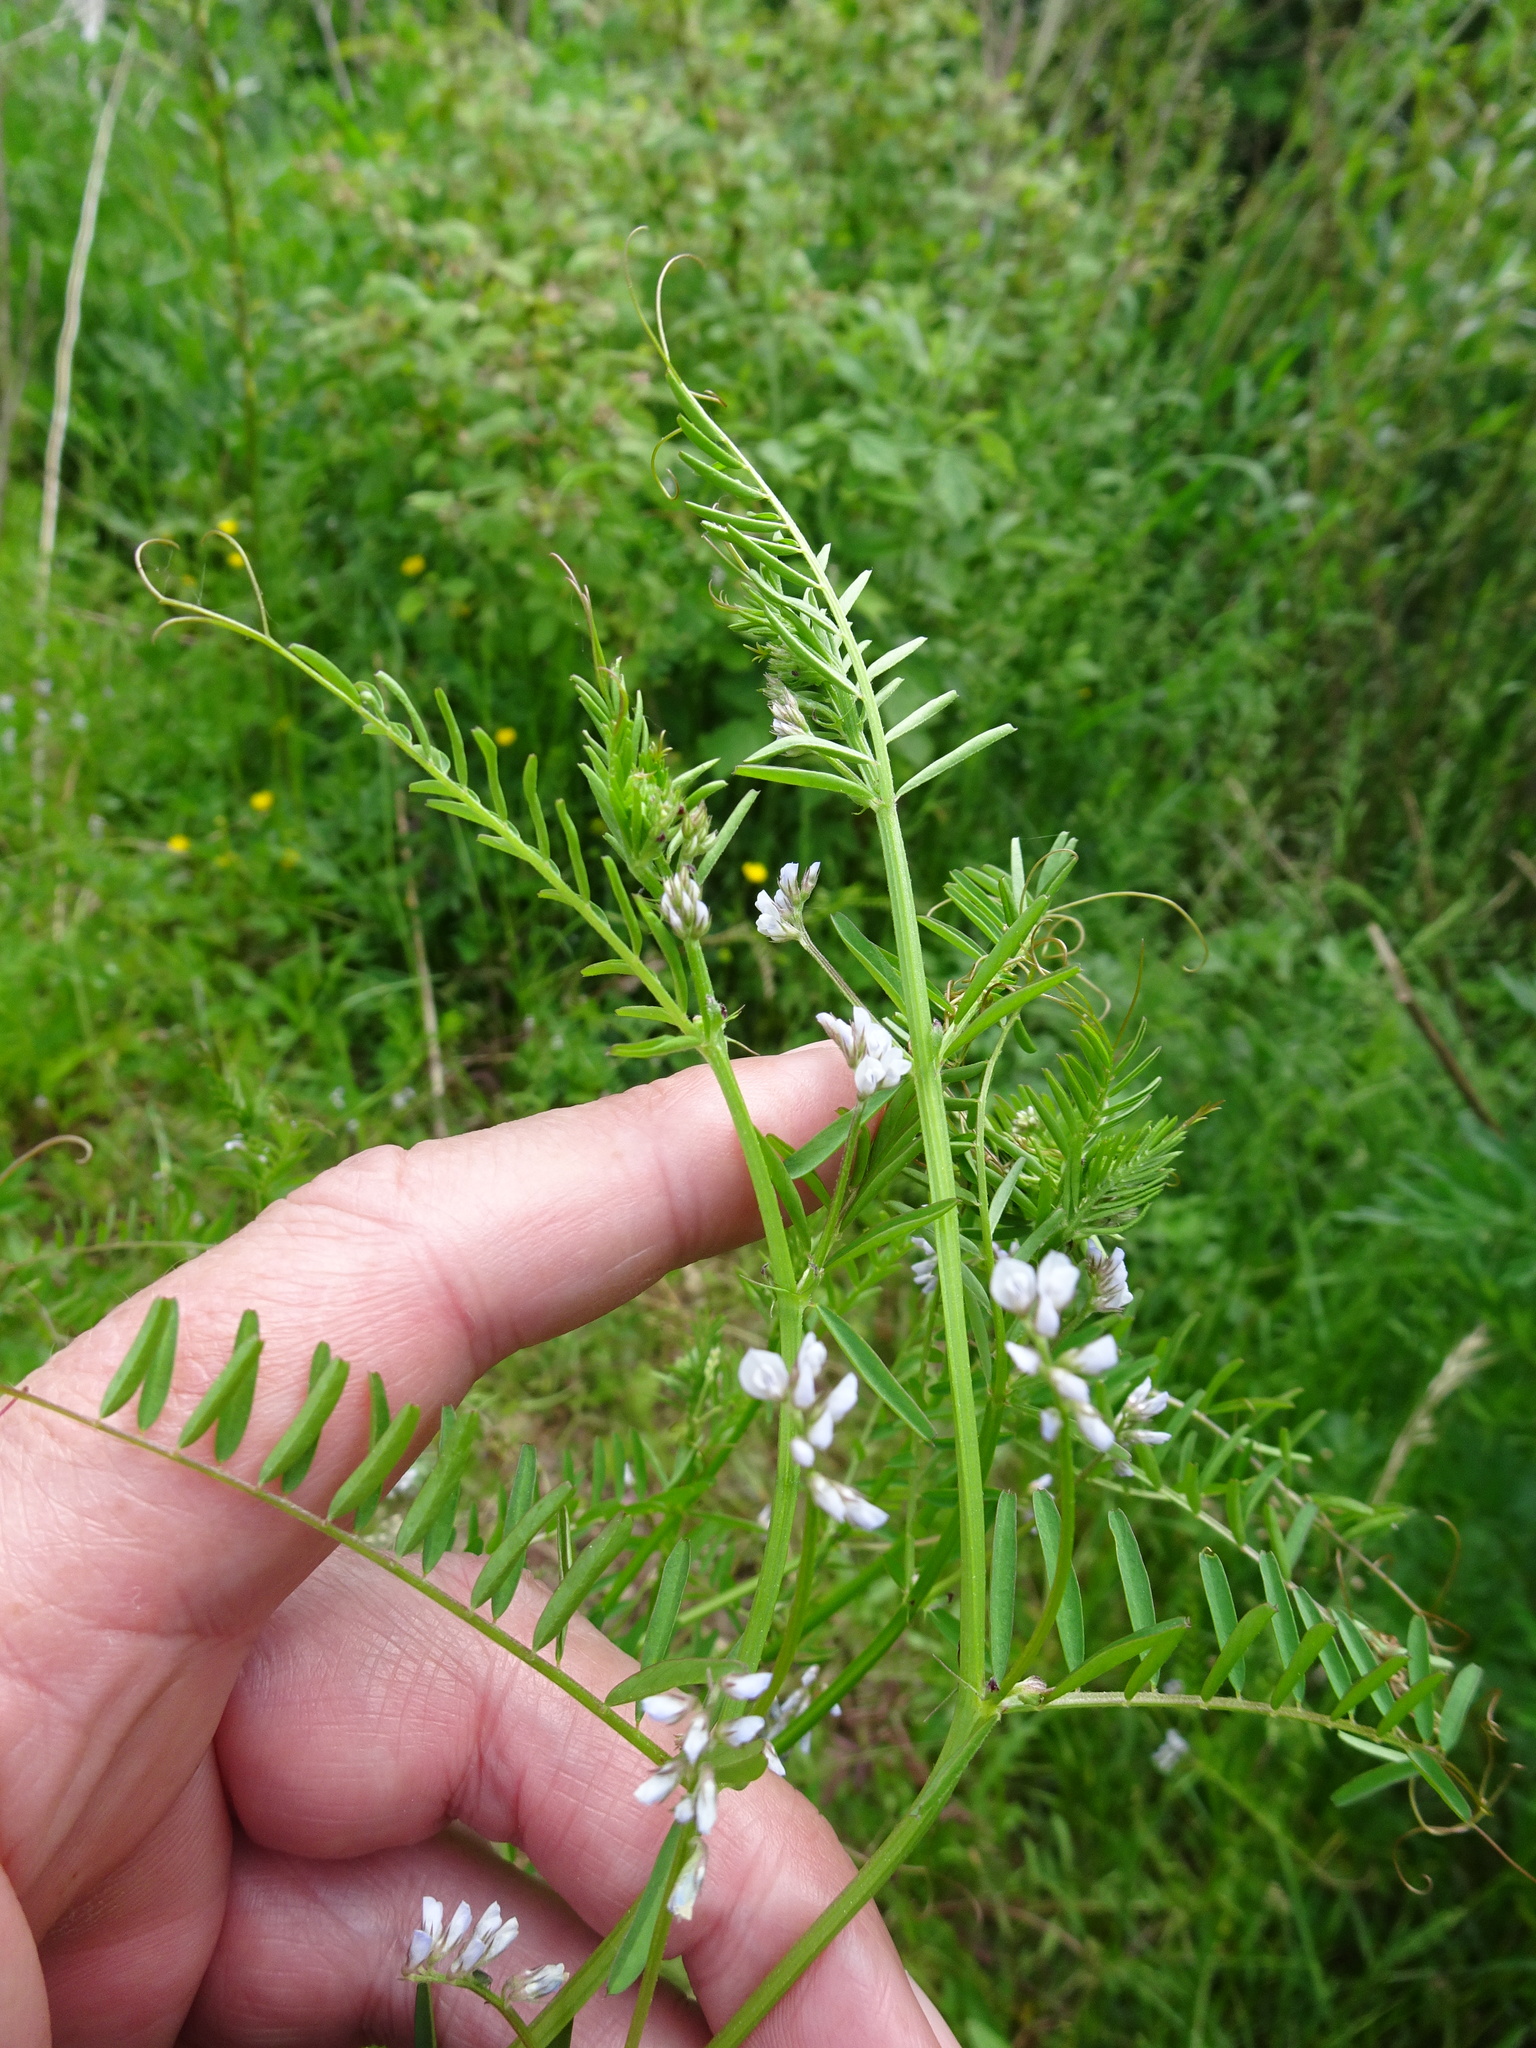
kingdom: Plantae
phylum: Tracheophyta
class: Magnoliopsida
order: Fabales
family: Fabaceae
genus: Vicia
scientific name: Vicia hirsuta
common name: Tiny vetch
